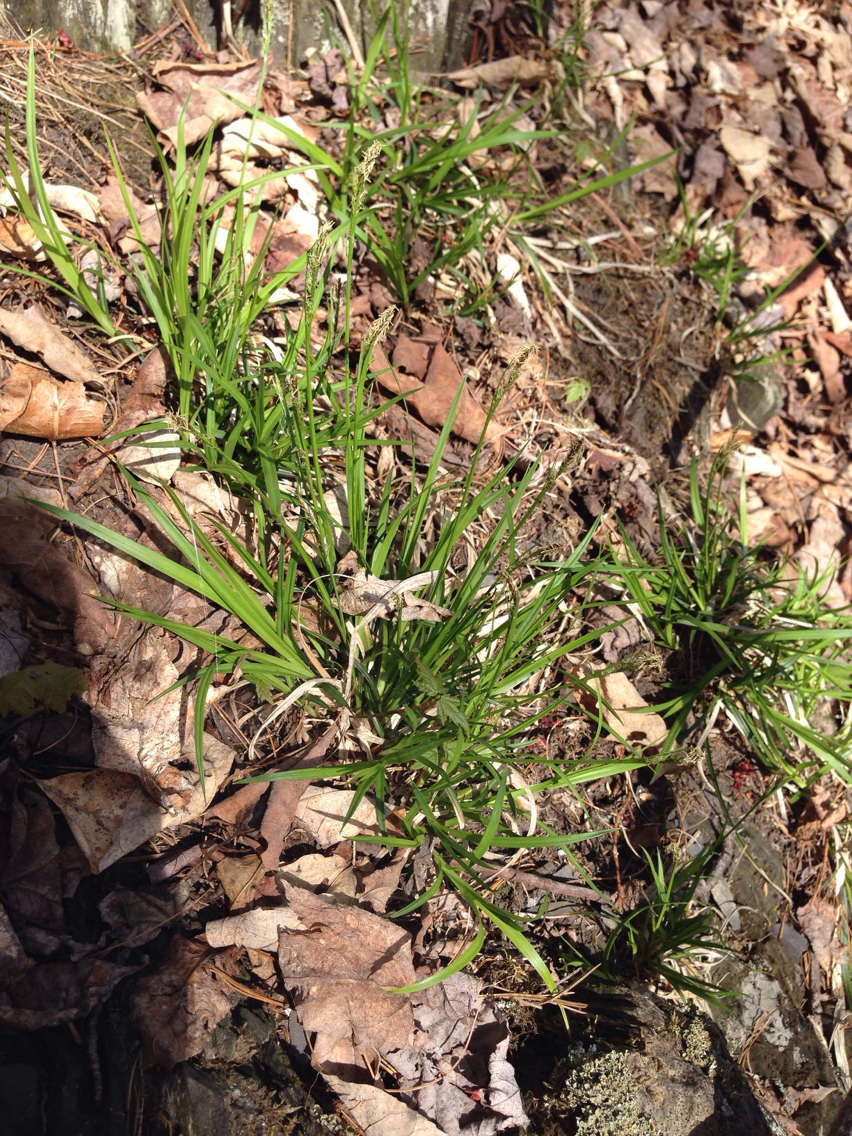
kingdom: Plantae
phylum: Tracheophyta
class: Liliopsida
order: Poales
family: Cyperaceae
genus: Carex
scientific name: Carex
